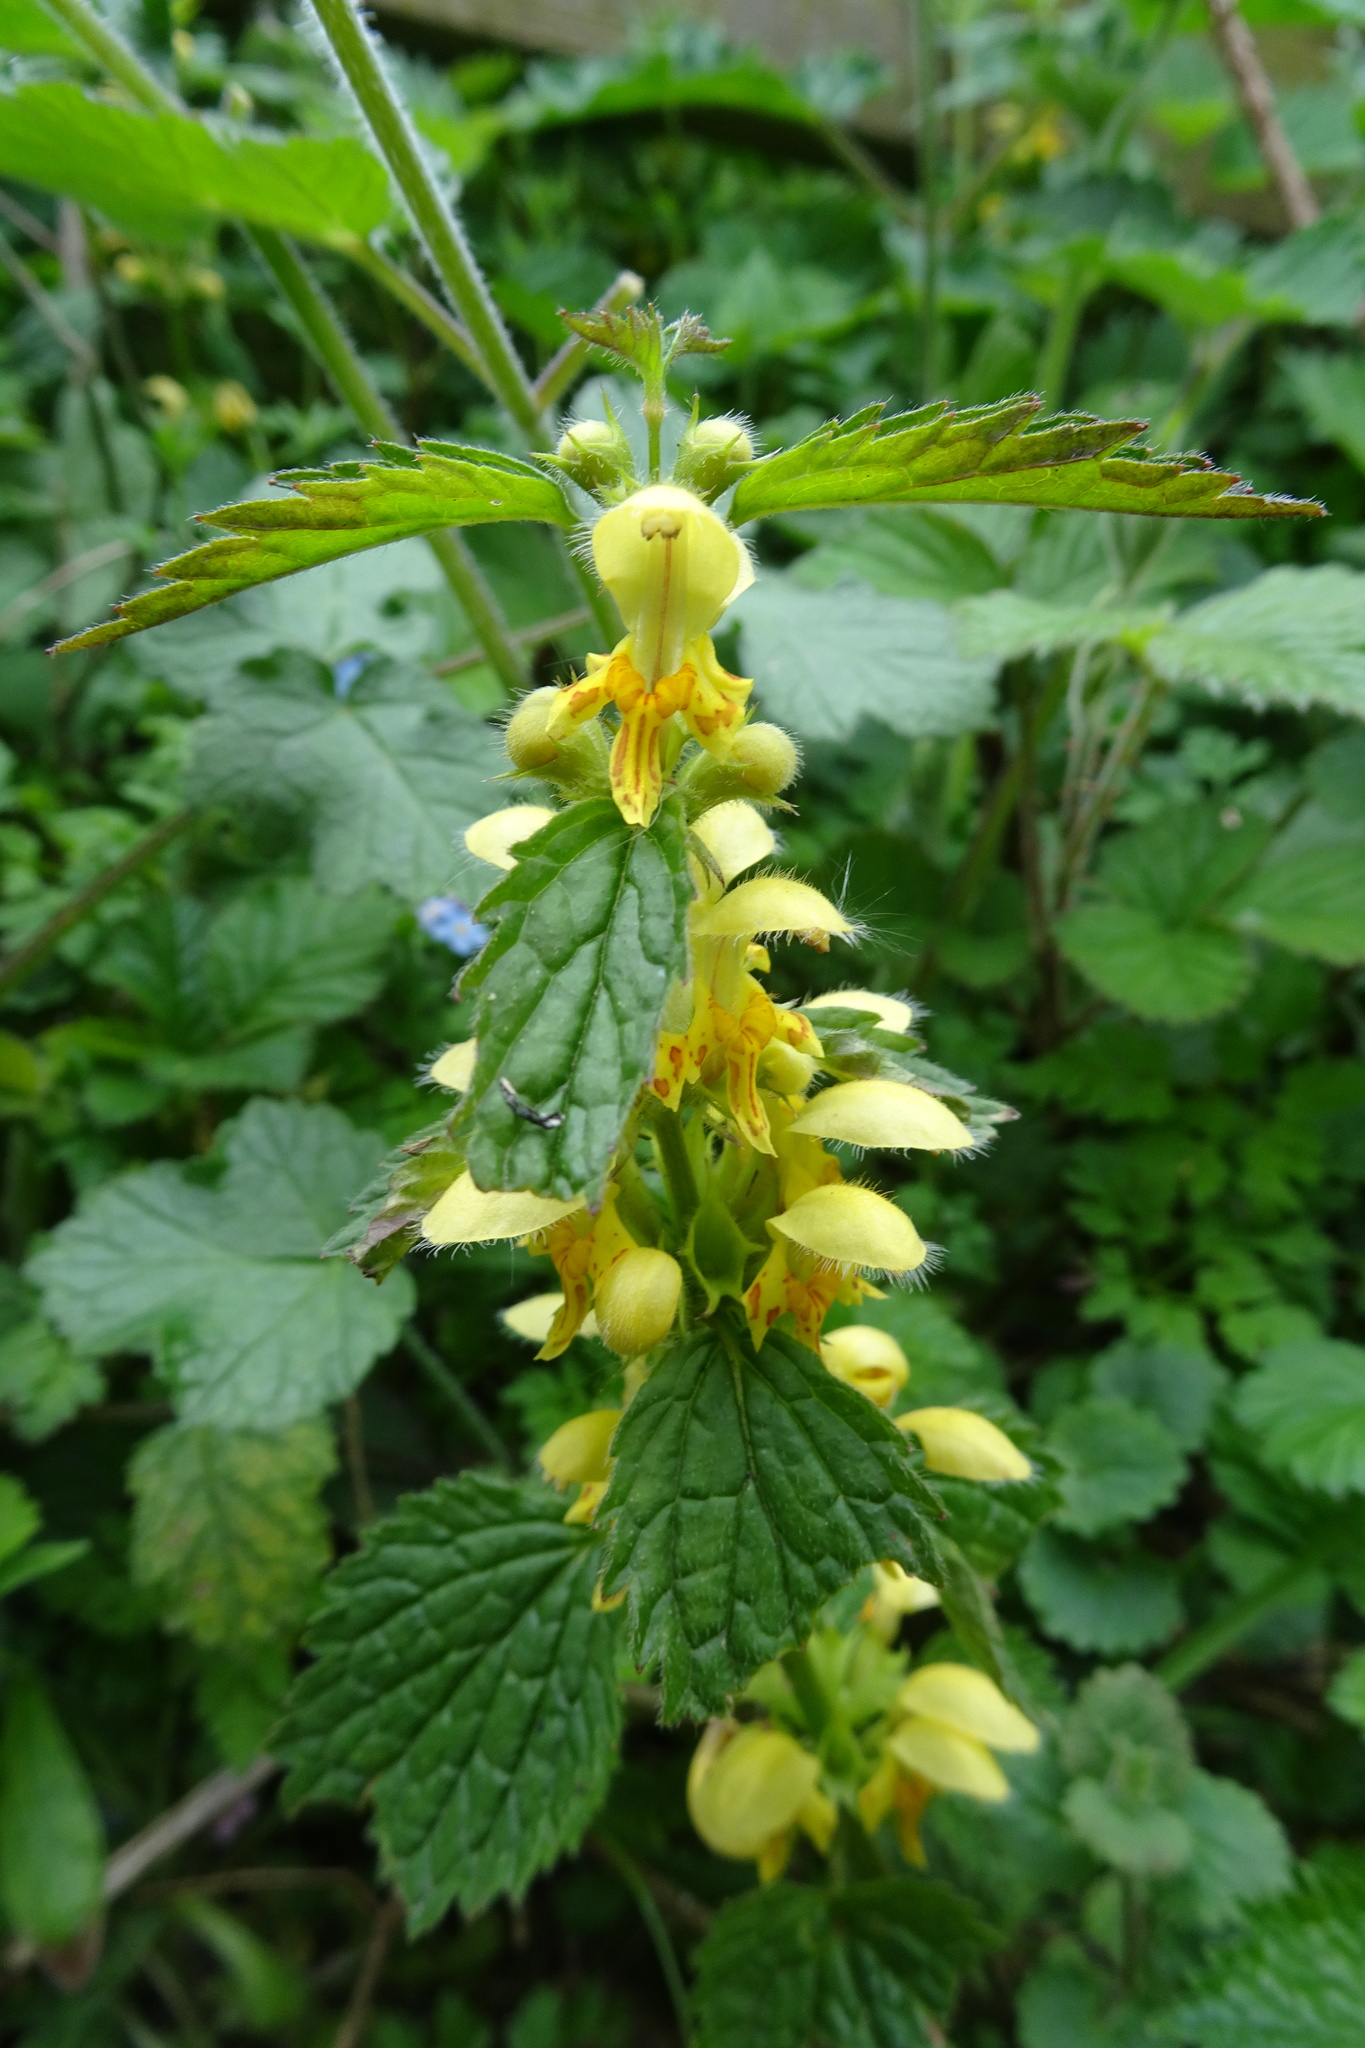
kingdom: Plantae
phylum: Tracheophyta
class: Magnoliopsida
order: Lamiales
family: Lamiaceae
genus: Lamium
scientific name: Lamium galeobdolon
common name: Yellow archangel
